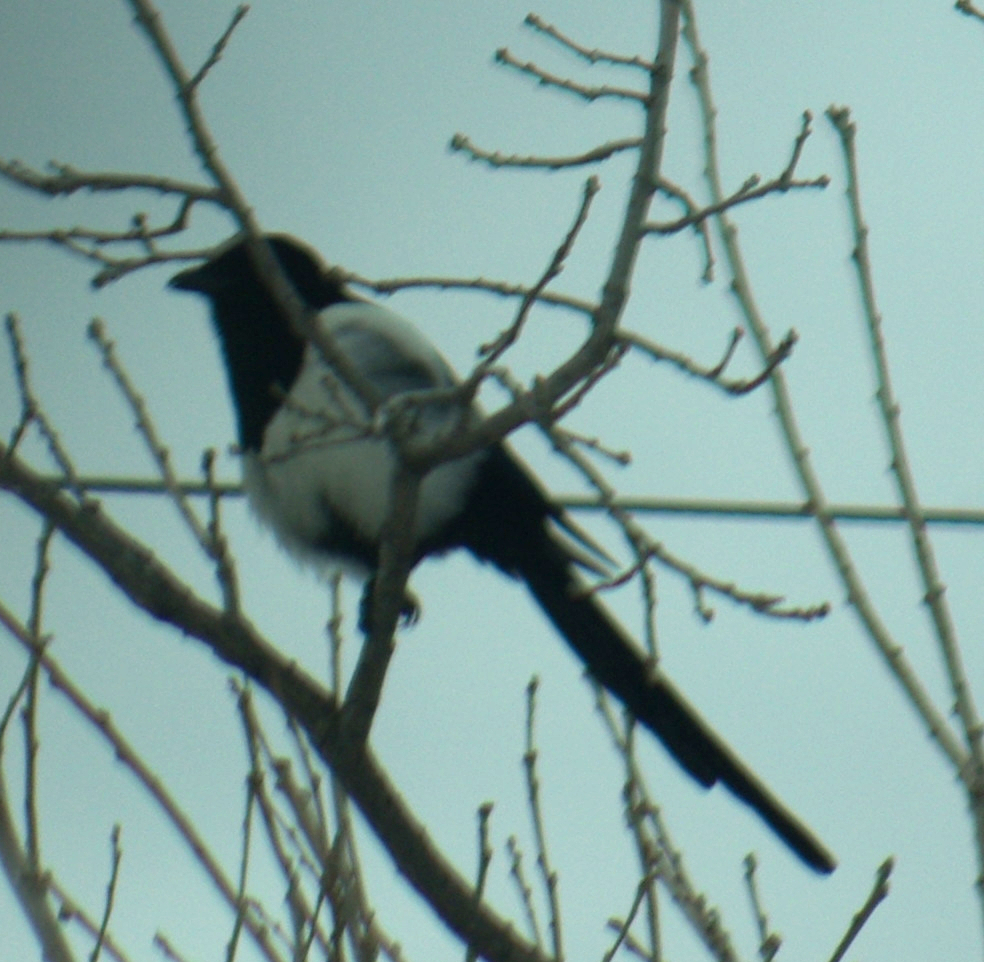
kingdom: Animalia
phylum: Chordata
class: Aves
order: Passeriformes
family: Corvidae
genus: Pica
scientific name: Pica hudsonia
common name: Black-billed magpie
